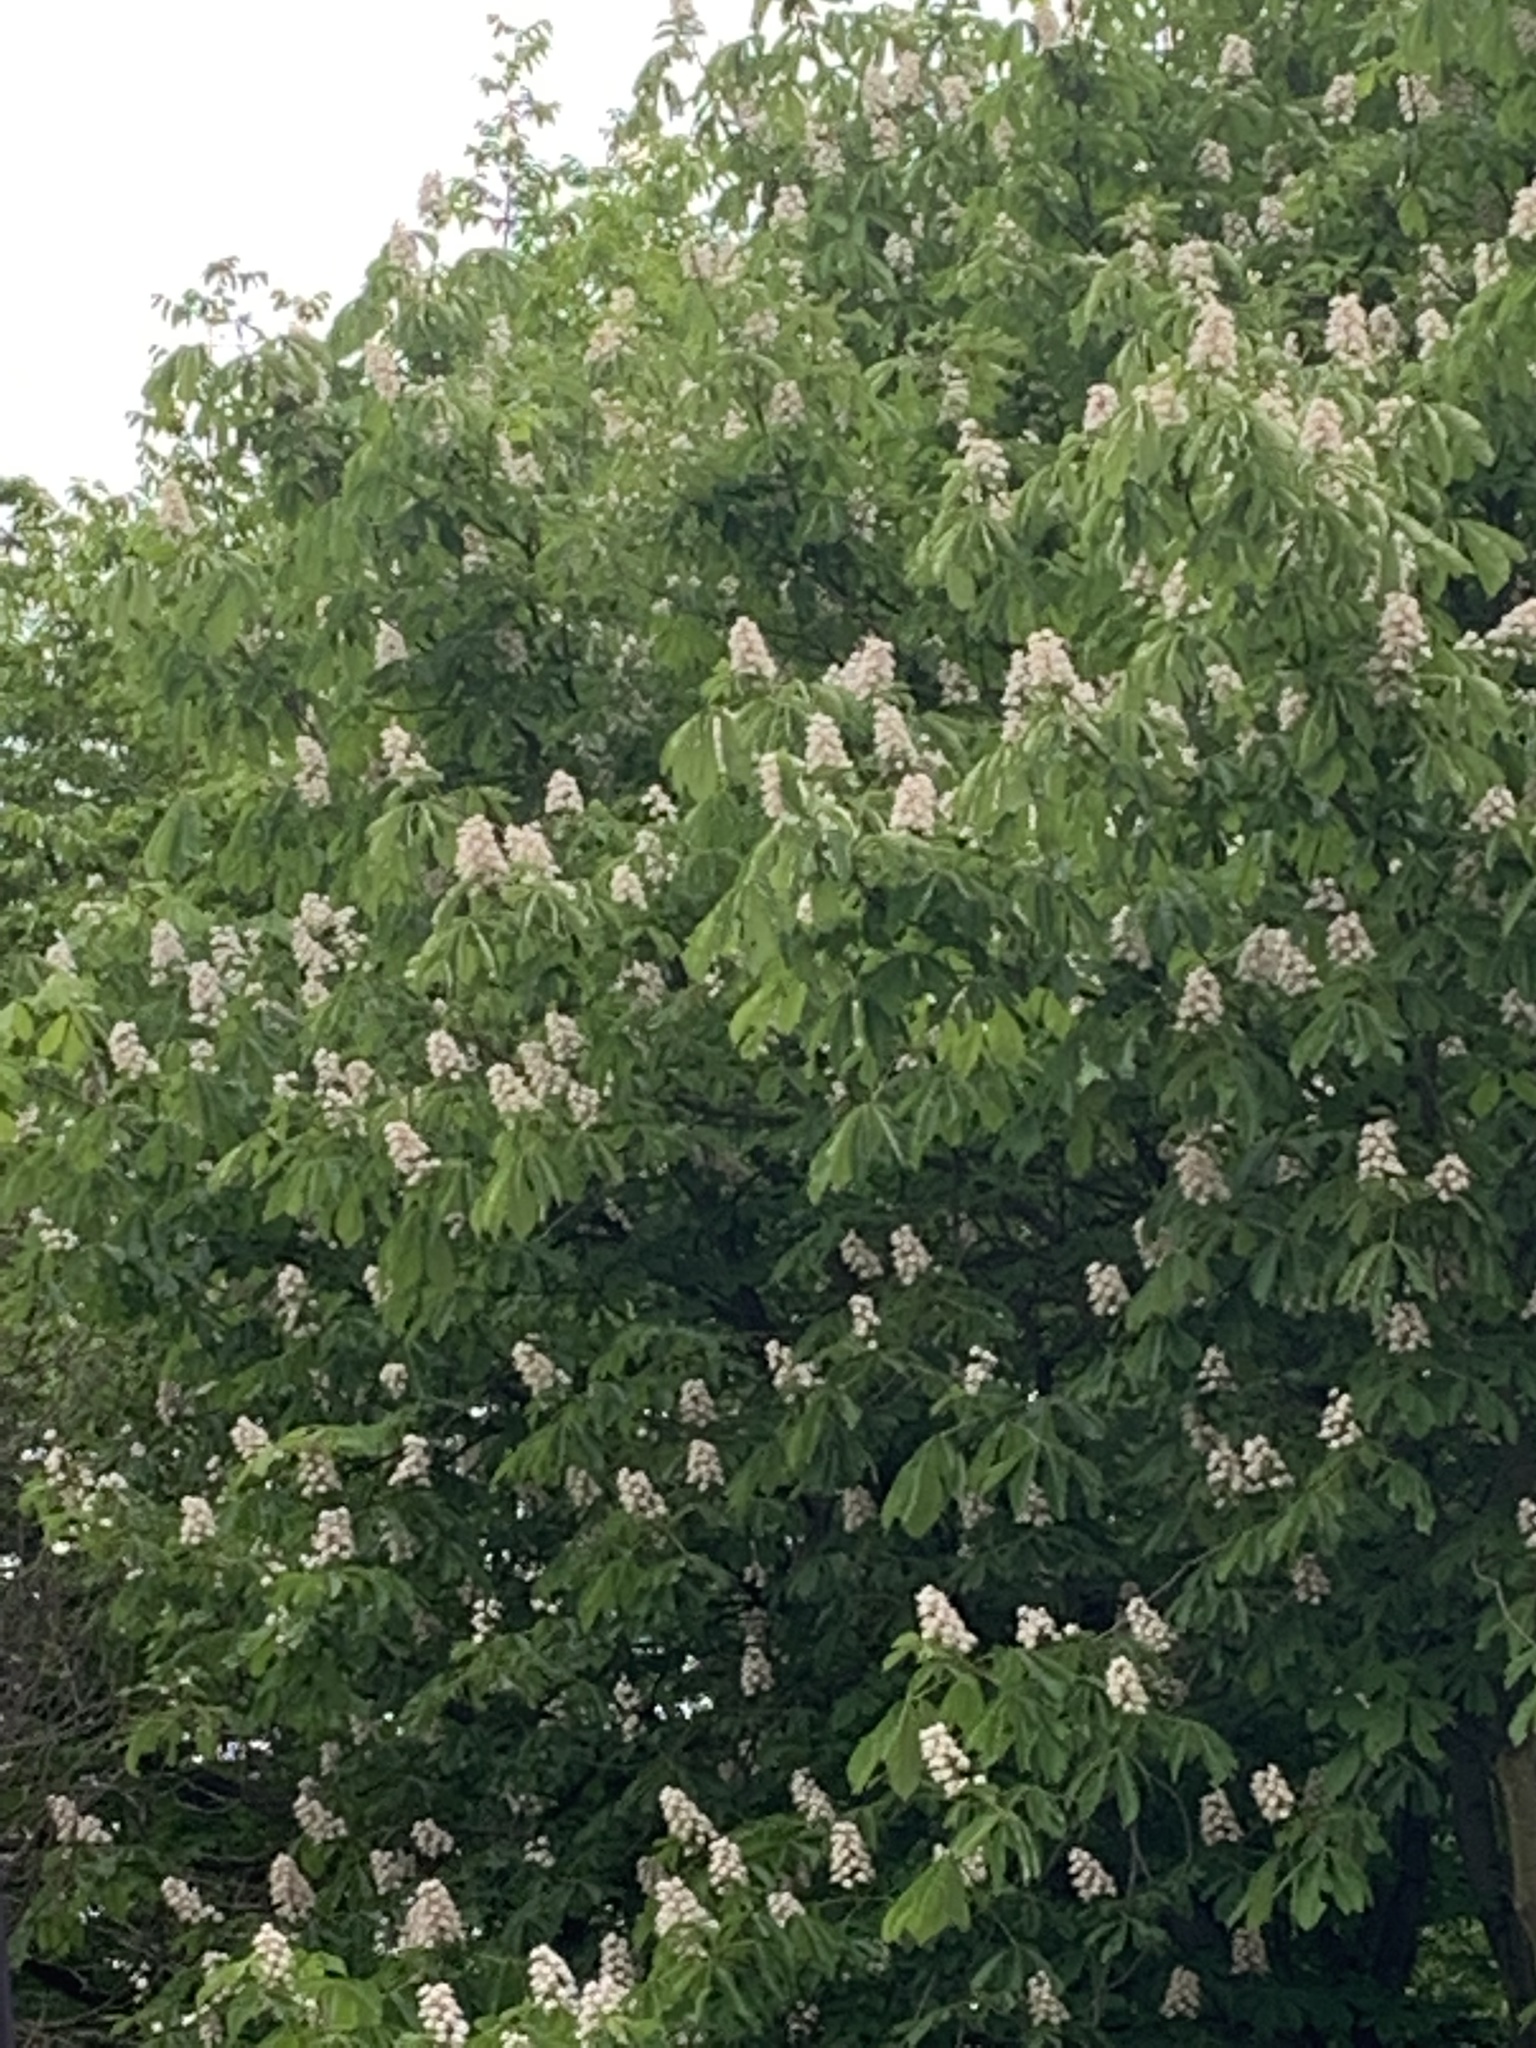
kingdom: Plantae
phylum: Tracheophyta
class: Magnoliopsida
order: Sapindales
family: Sapindaceae
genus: Aesculus
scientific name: Aesculus hippocastanum
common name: Horse-chestnut
